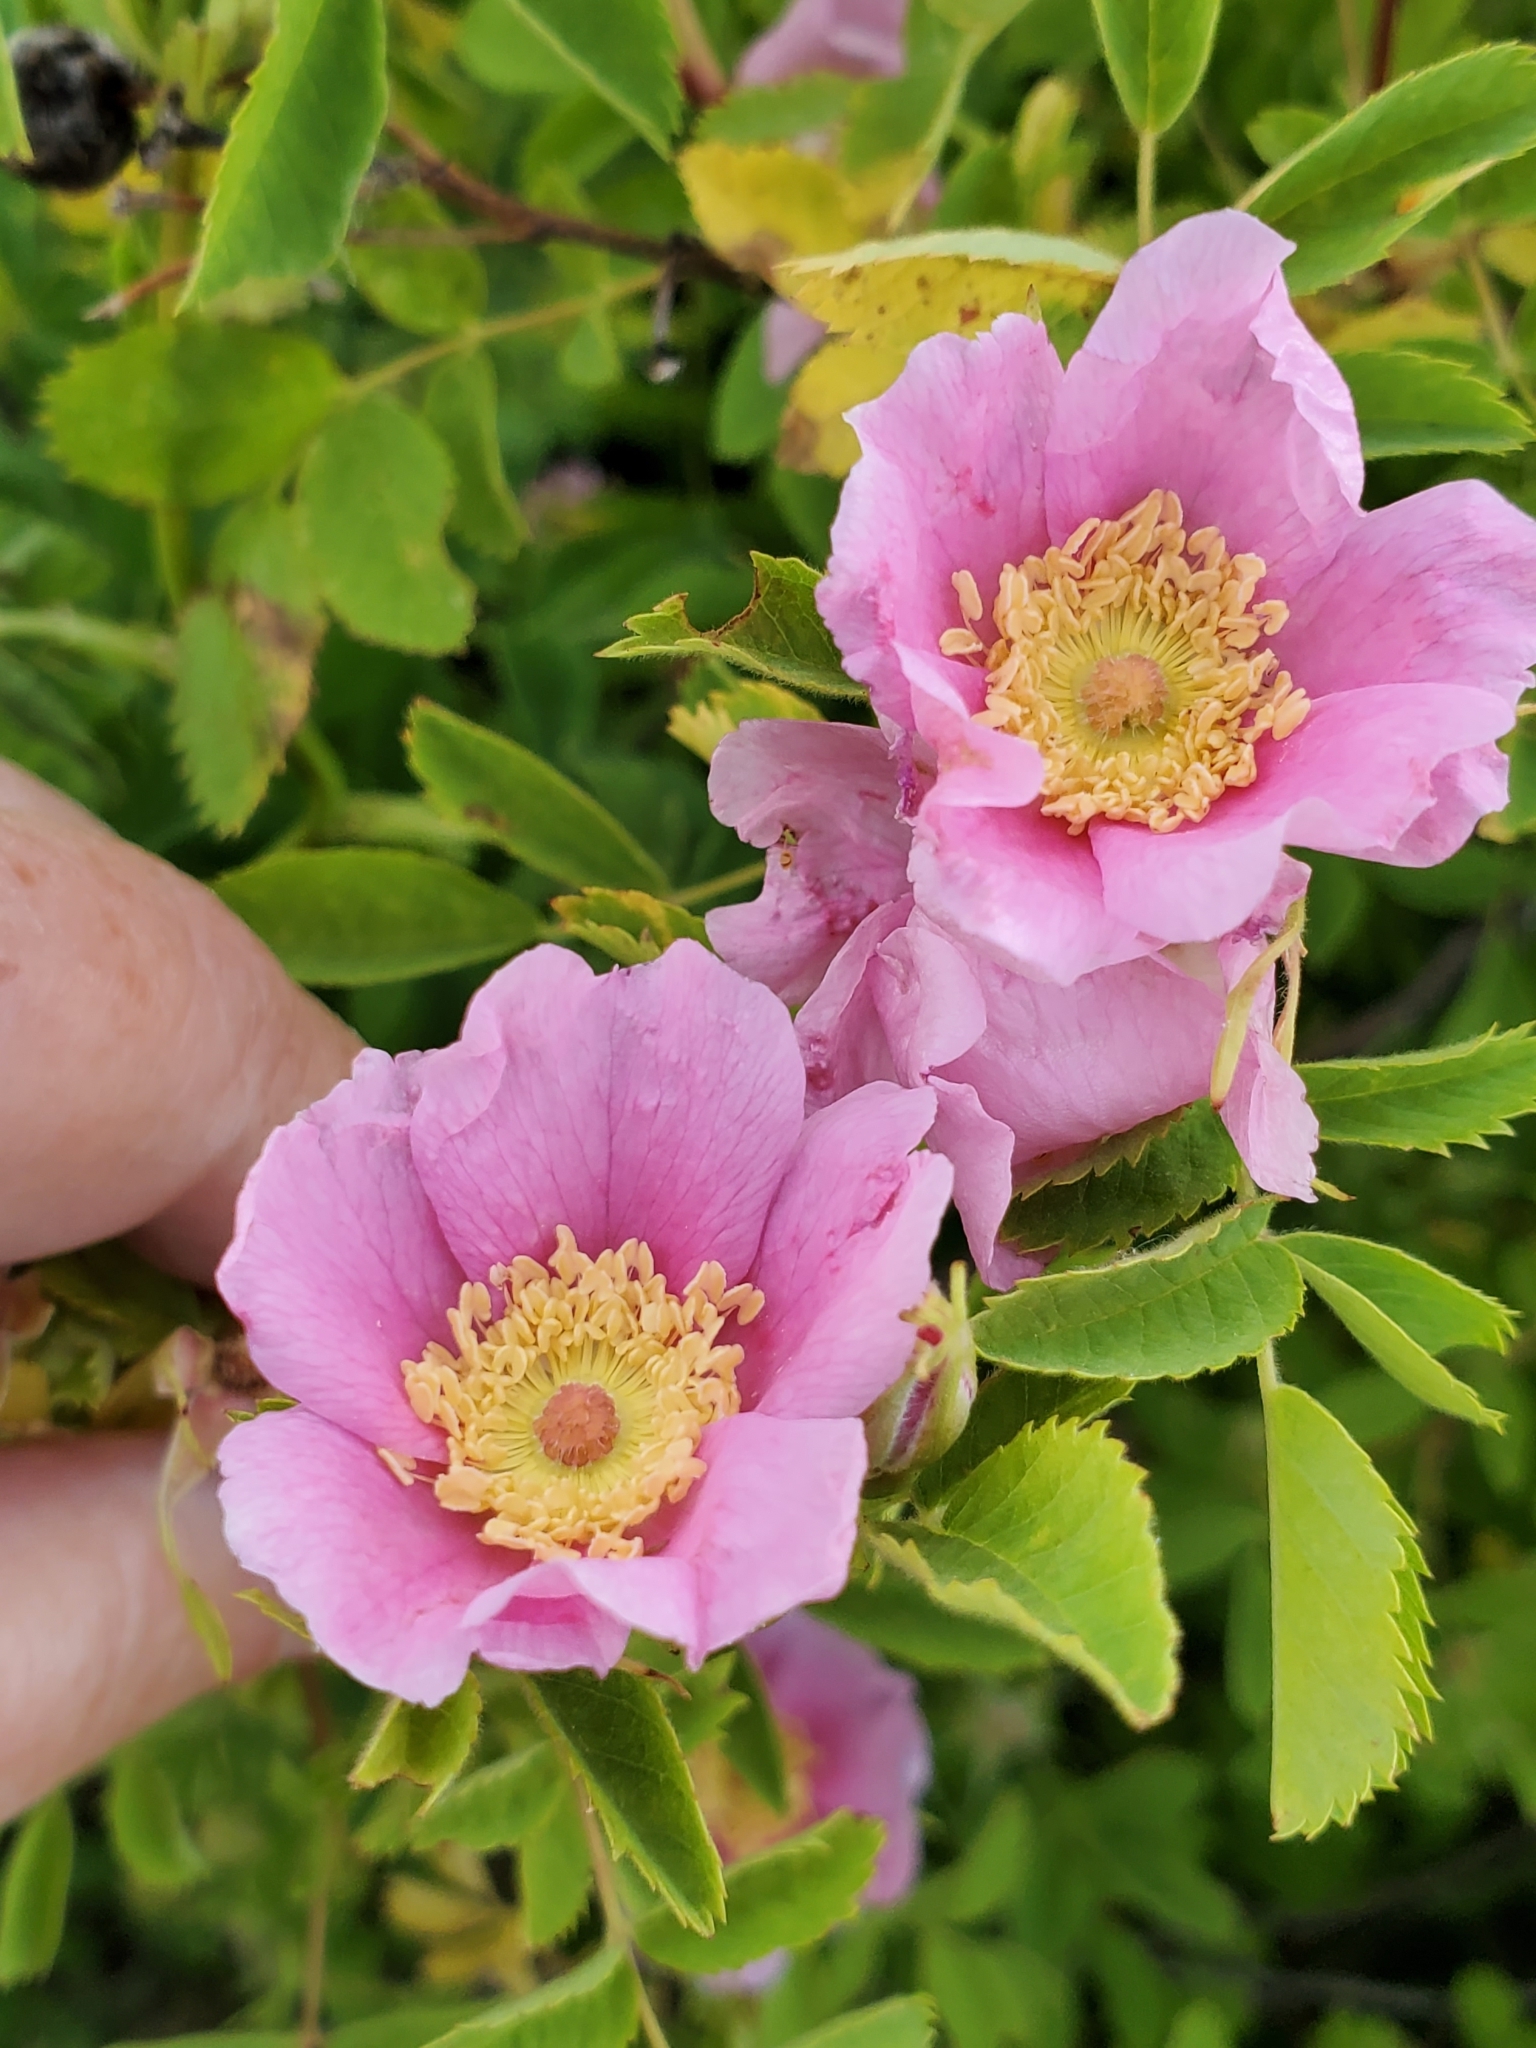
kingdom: Plantae
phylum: Tracheophyta
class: Magnoliopsida
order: Rosales
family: Rosaceae
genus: Rosa
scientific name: Rosa californica
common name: California rose
